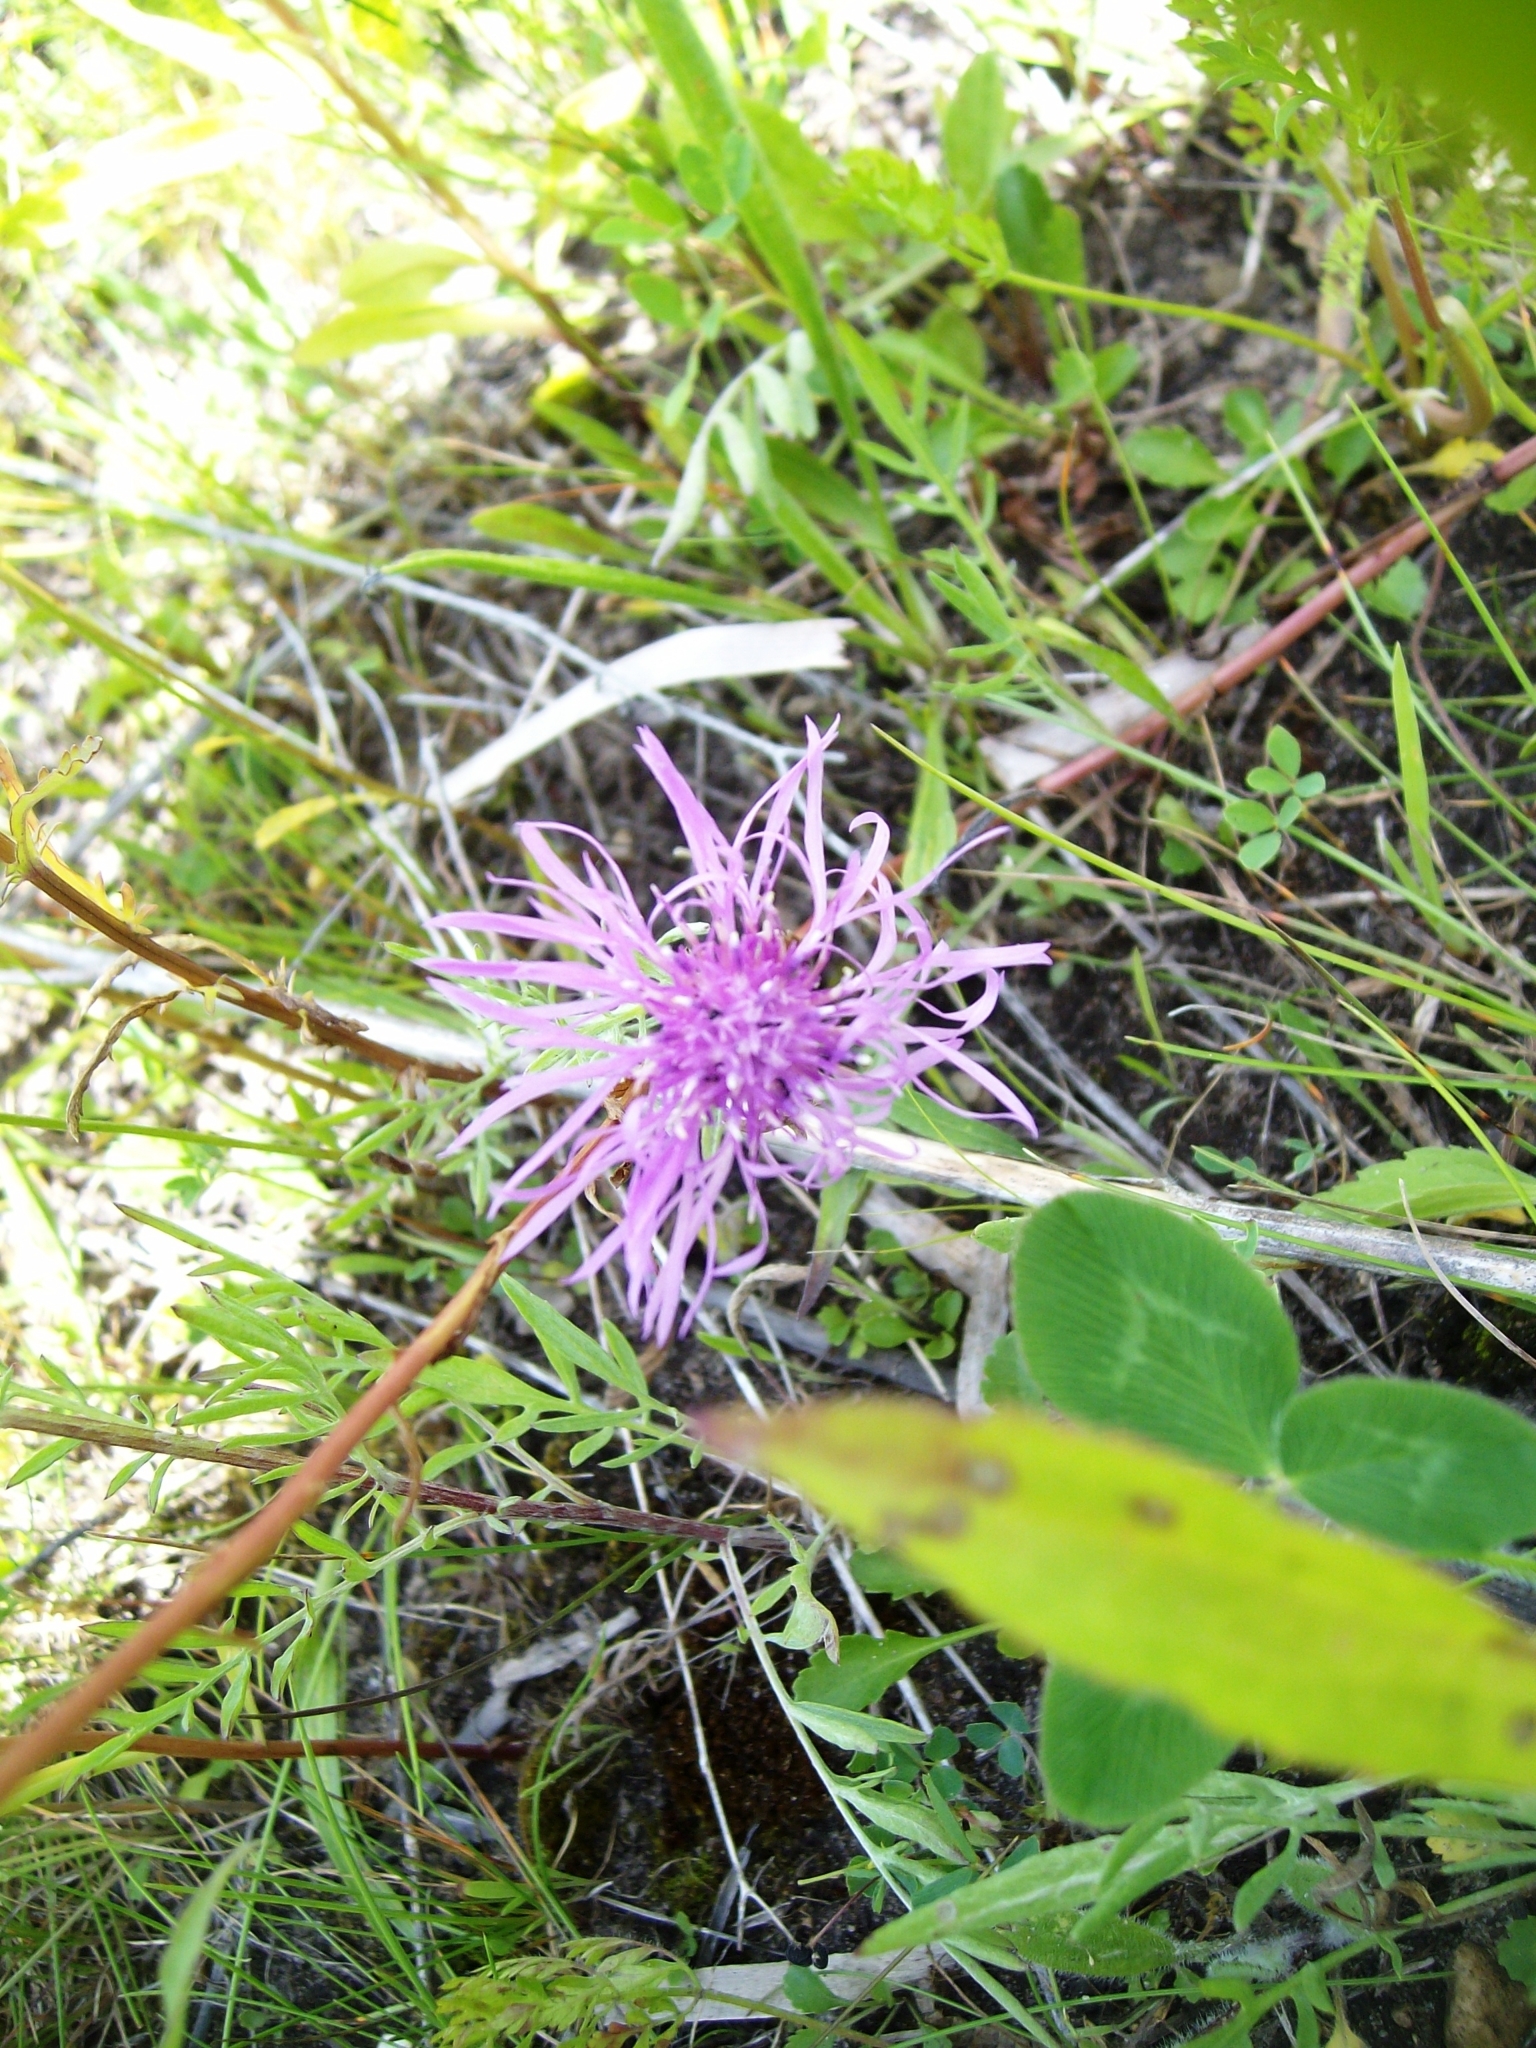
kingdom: Plantae
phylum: Tracheophyta
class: Magnoliopsida
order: Asterales
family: Asteraceae
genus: Centaurea
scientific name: Centaurea stoebe
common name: Spotted knapweed
